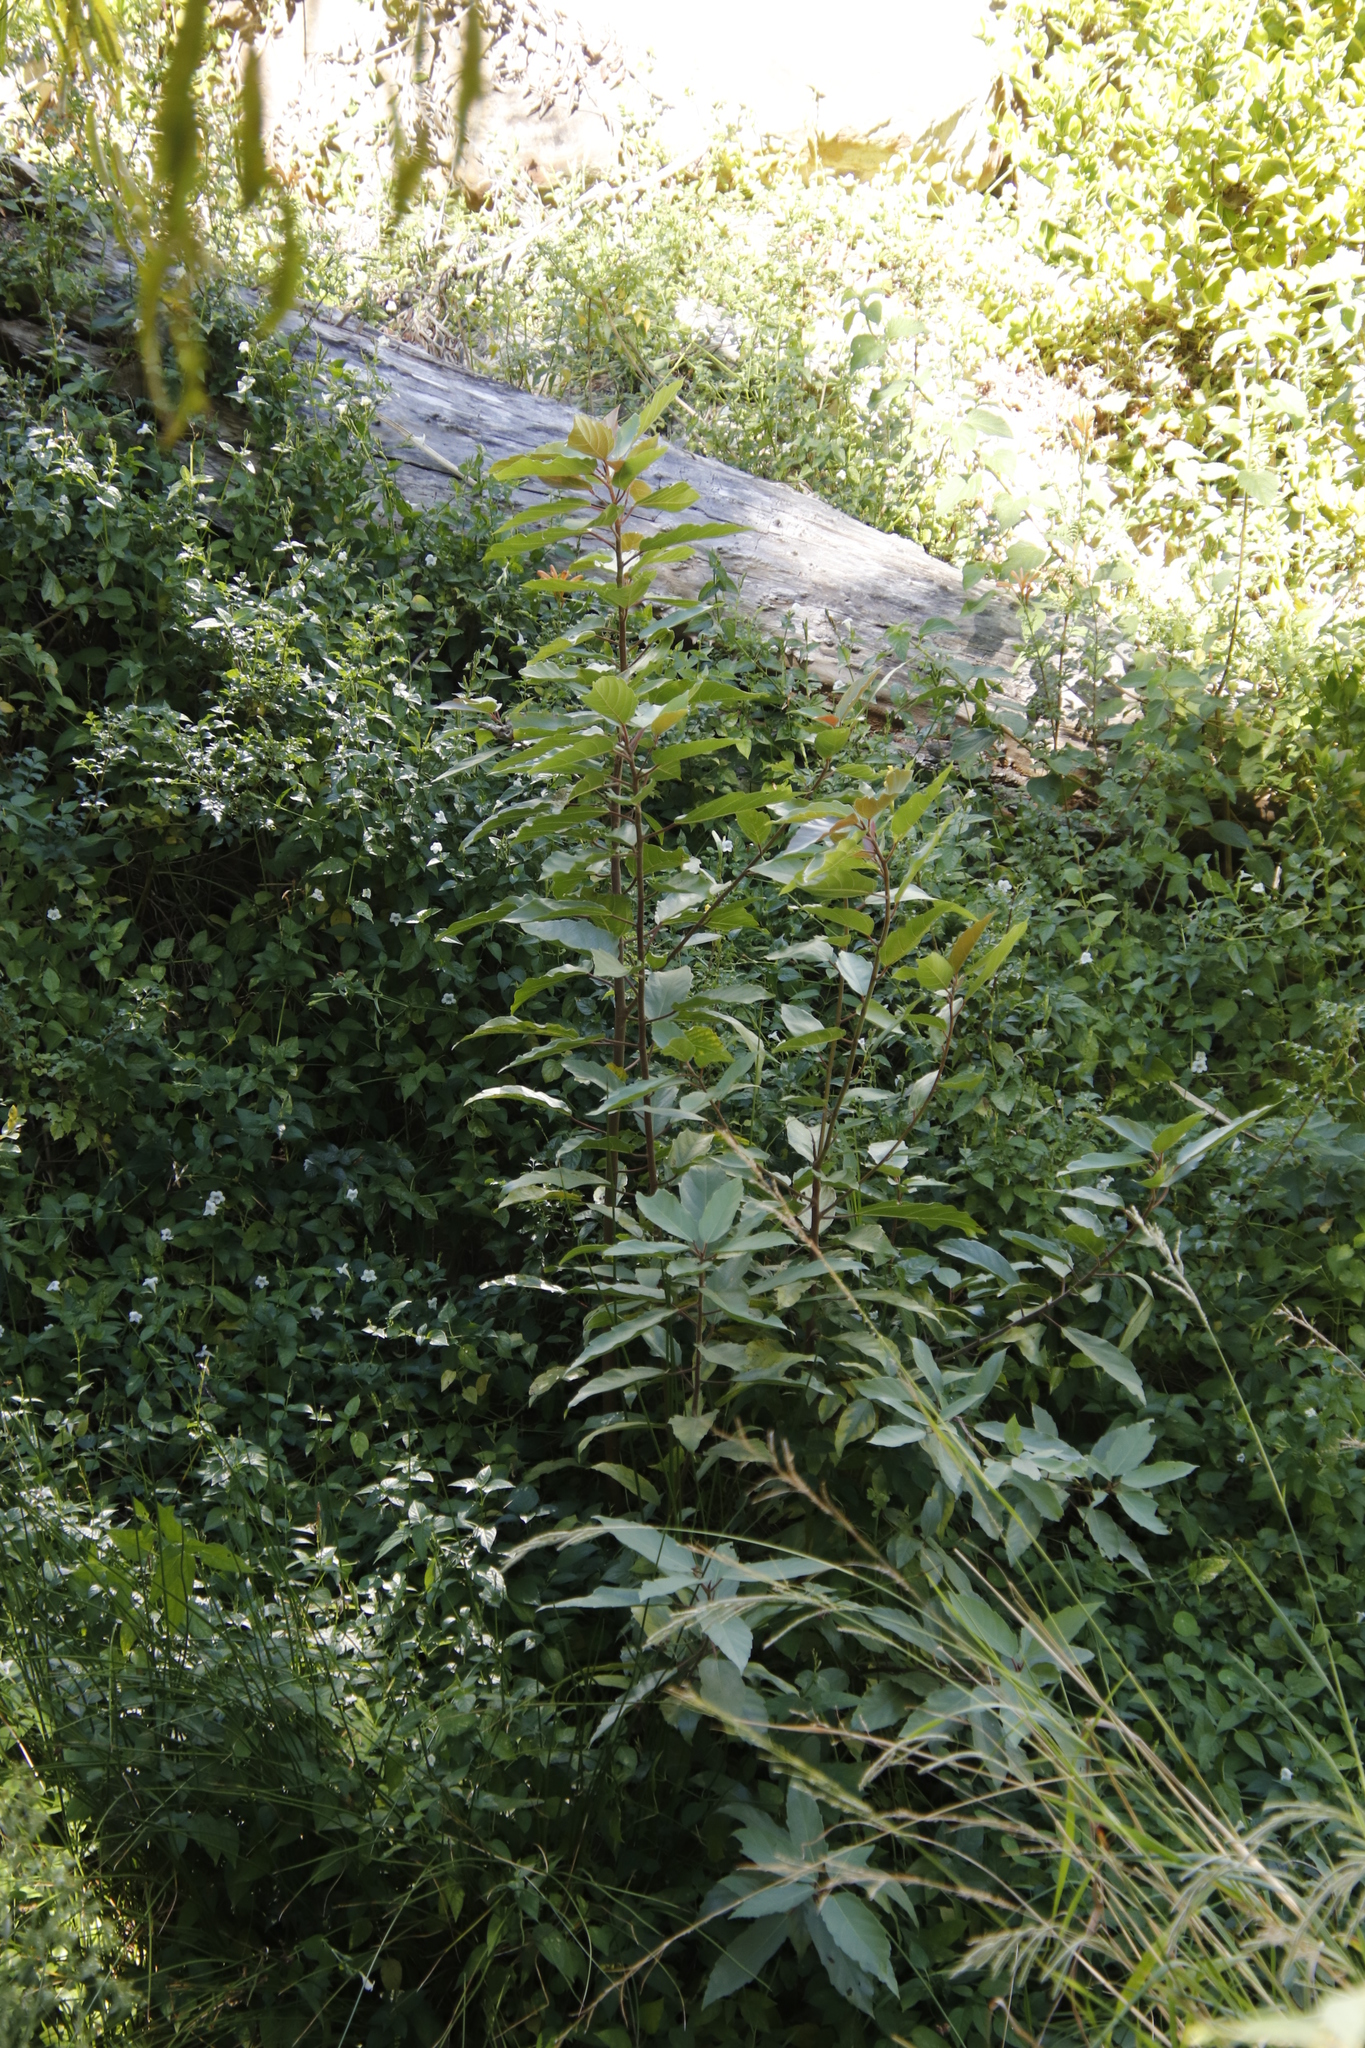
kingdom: Plantae
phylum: Tracheophyta
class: Magnoliopsida
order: Rosales
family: Moraceae
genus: Ficus
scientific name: Ficus sur
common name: Cape fig
